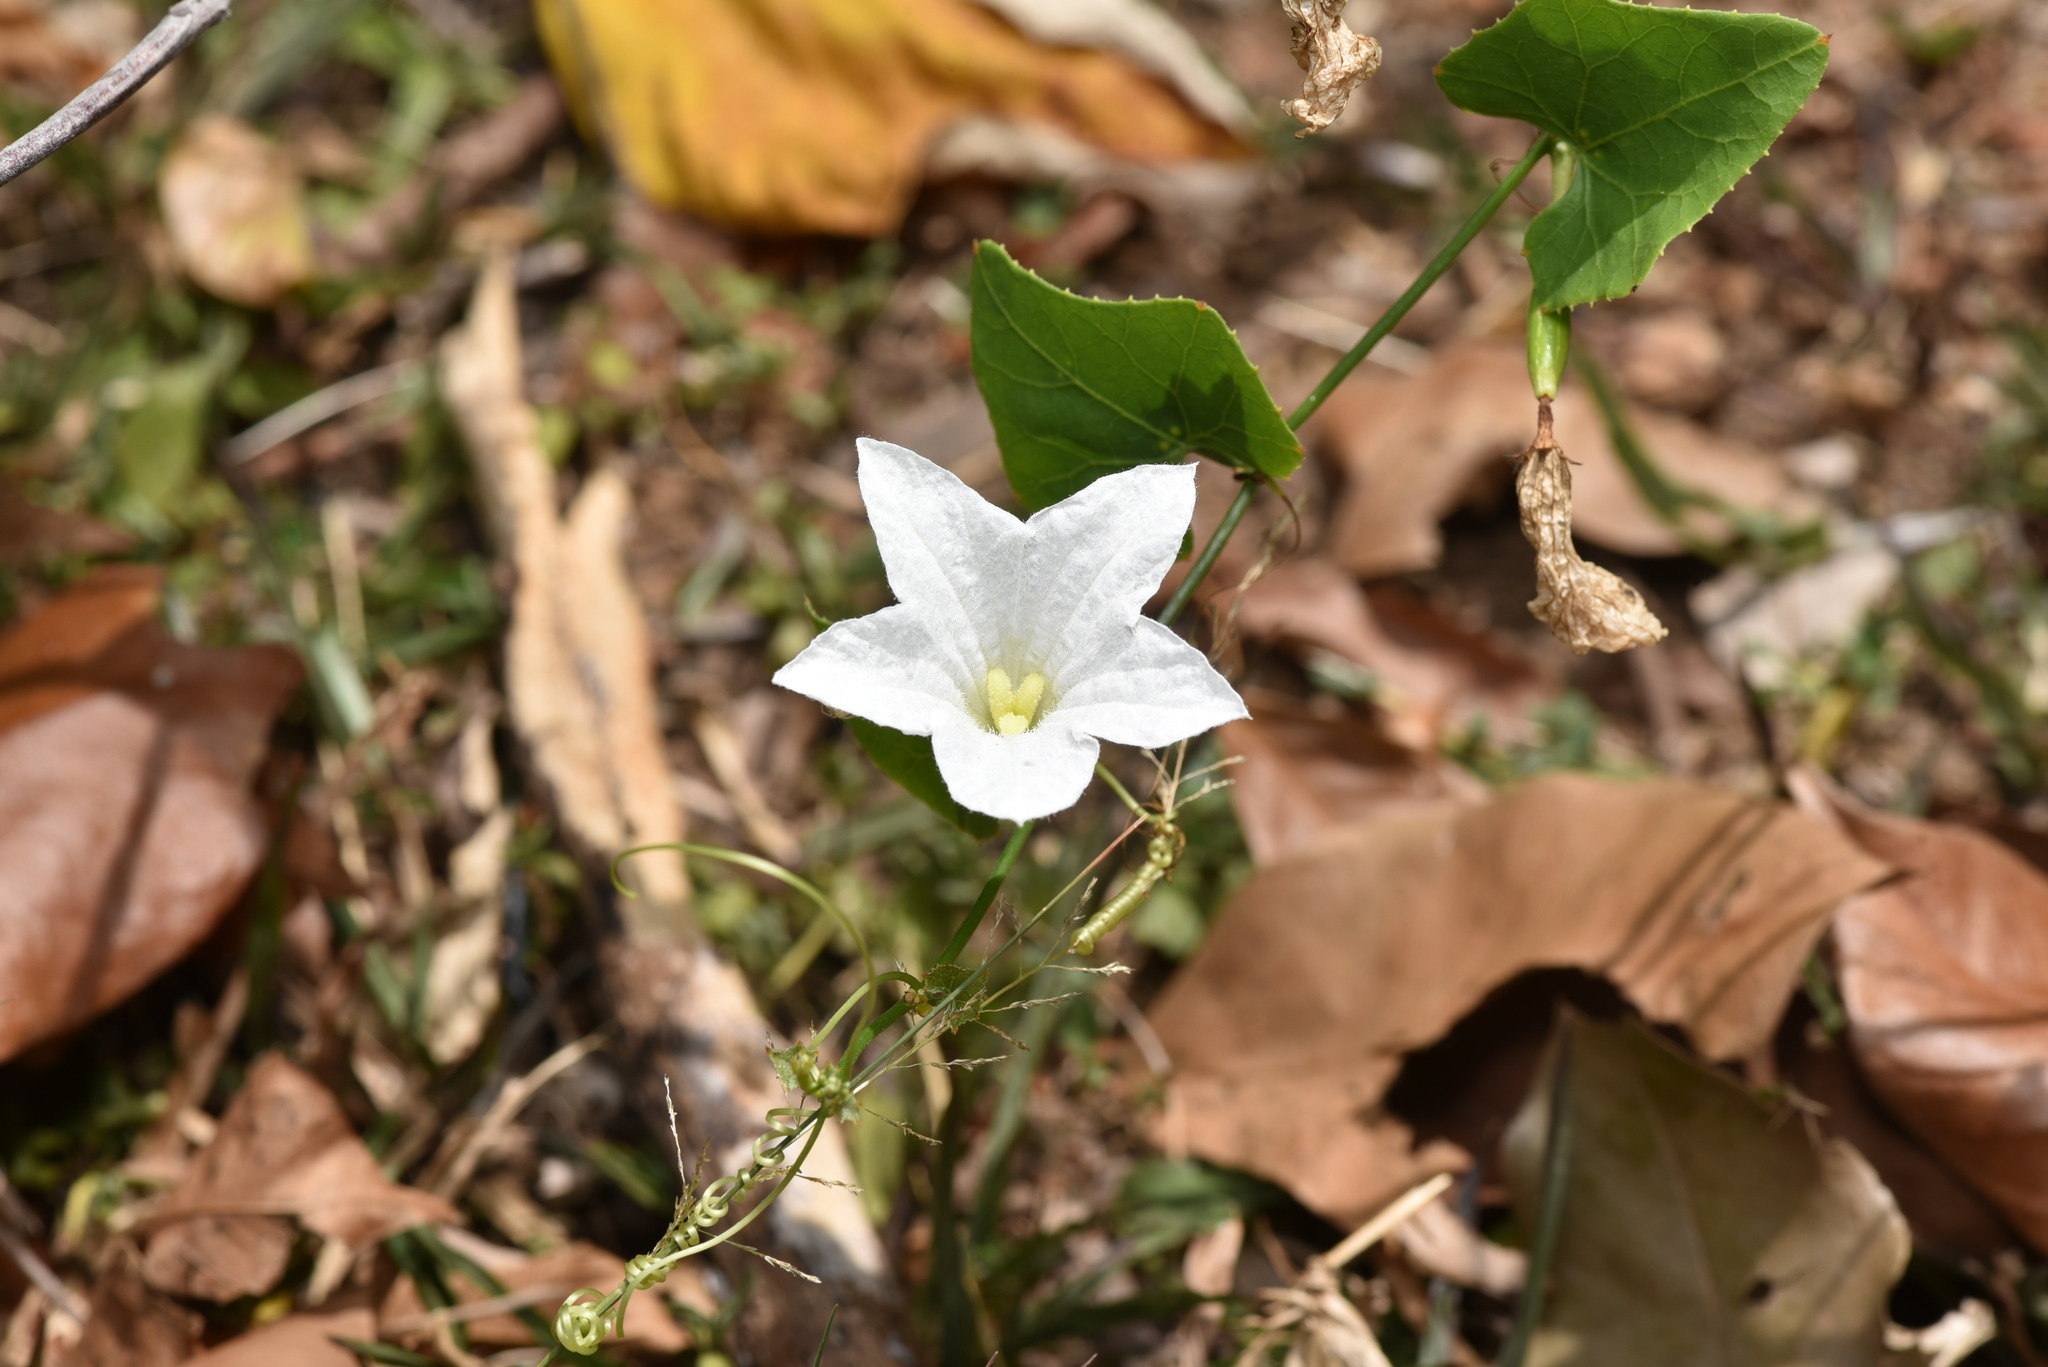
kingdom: Plantae
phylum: Tracheophyta
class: Magnoliopsida
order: Cucurbitales
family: Cucurbitaceae
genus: Coccinia
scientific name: Coccinia grandis
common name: Ivy gourd
